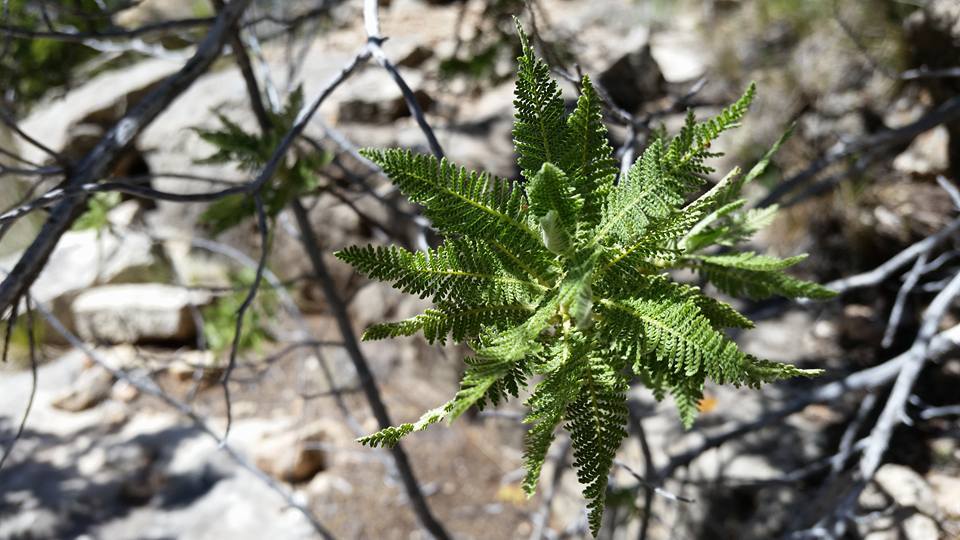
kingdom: Plantae
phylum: Tracheophyta
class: Magnoliopsida
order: Rosales
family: Rosaceae
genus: Chamaebatiaria
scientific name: Chamaebatiaria millefolium
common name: Fernbush
